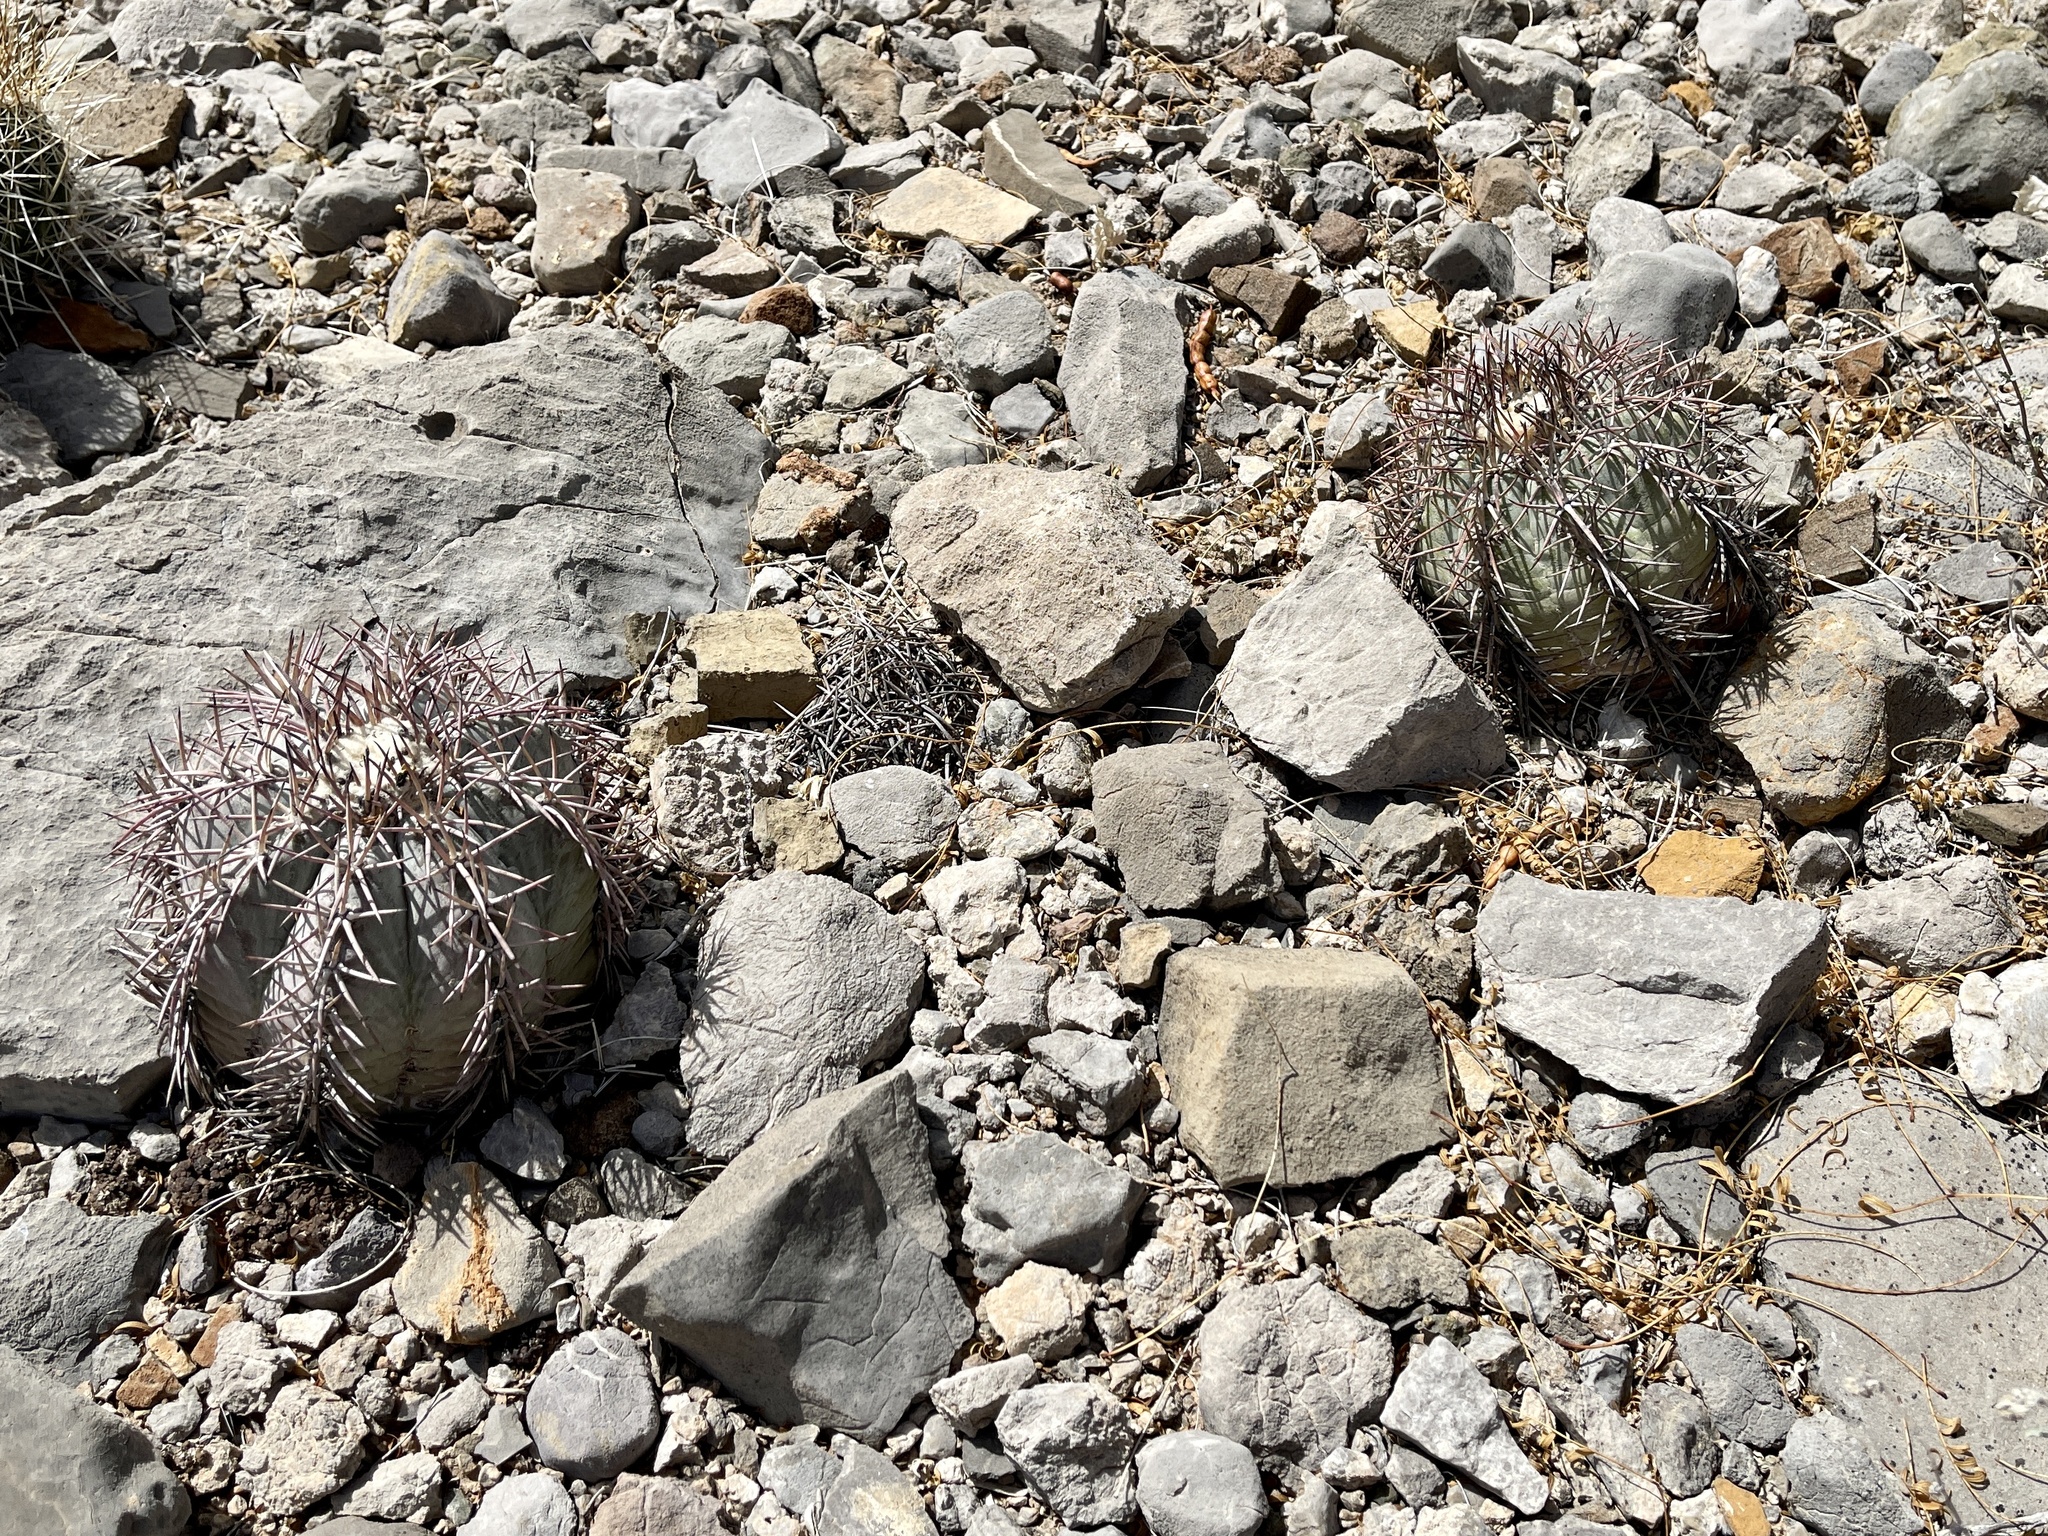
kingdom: Plantae
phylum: Tracheophyta
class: Magnoliopsida
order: Caryophyllales
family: Cactaceae
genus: Echinocactus
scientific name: Echinocactus horizonthalonius
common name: Devilshead
